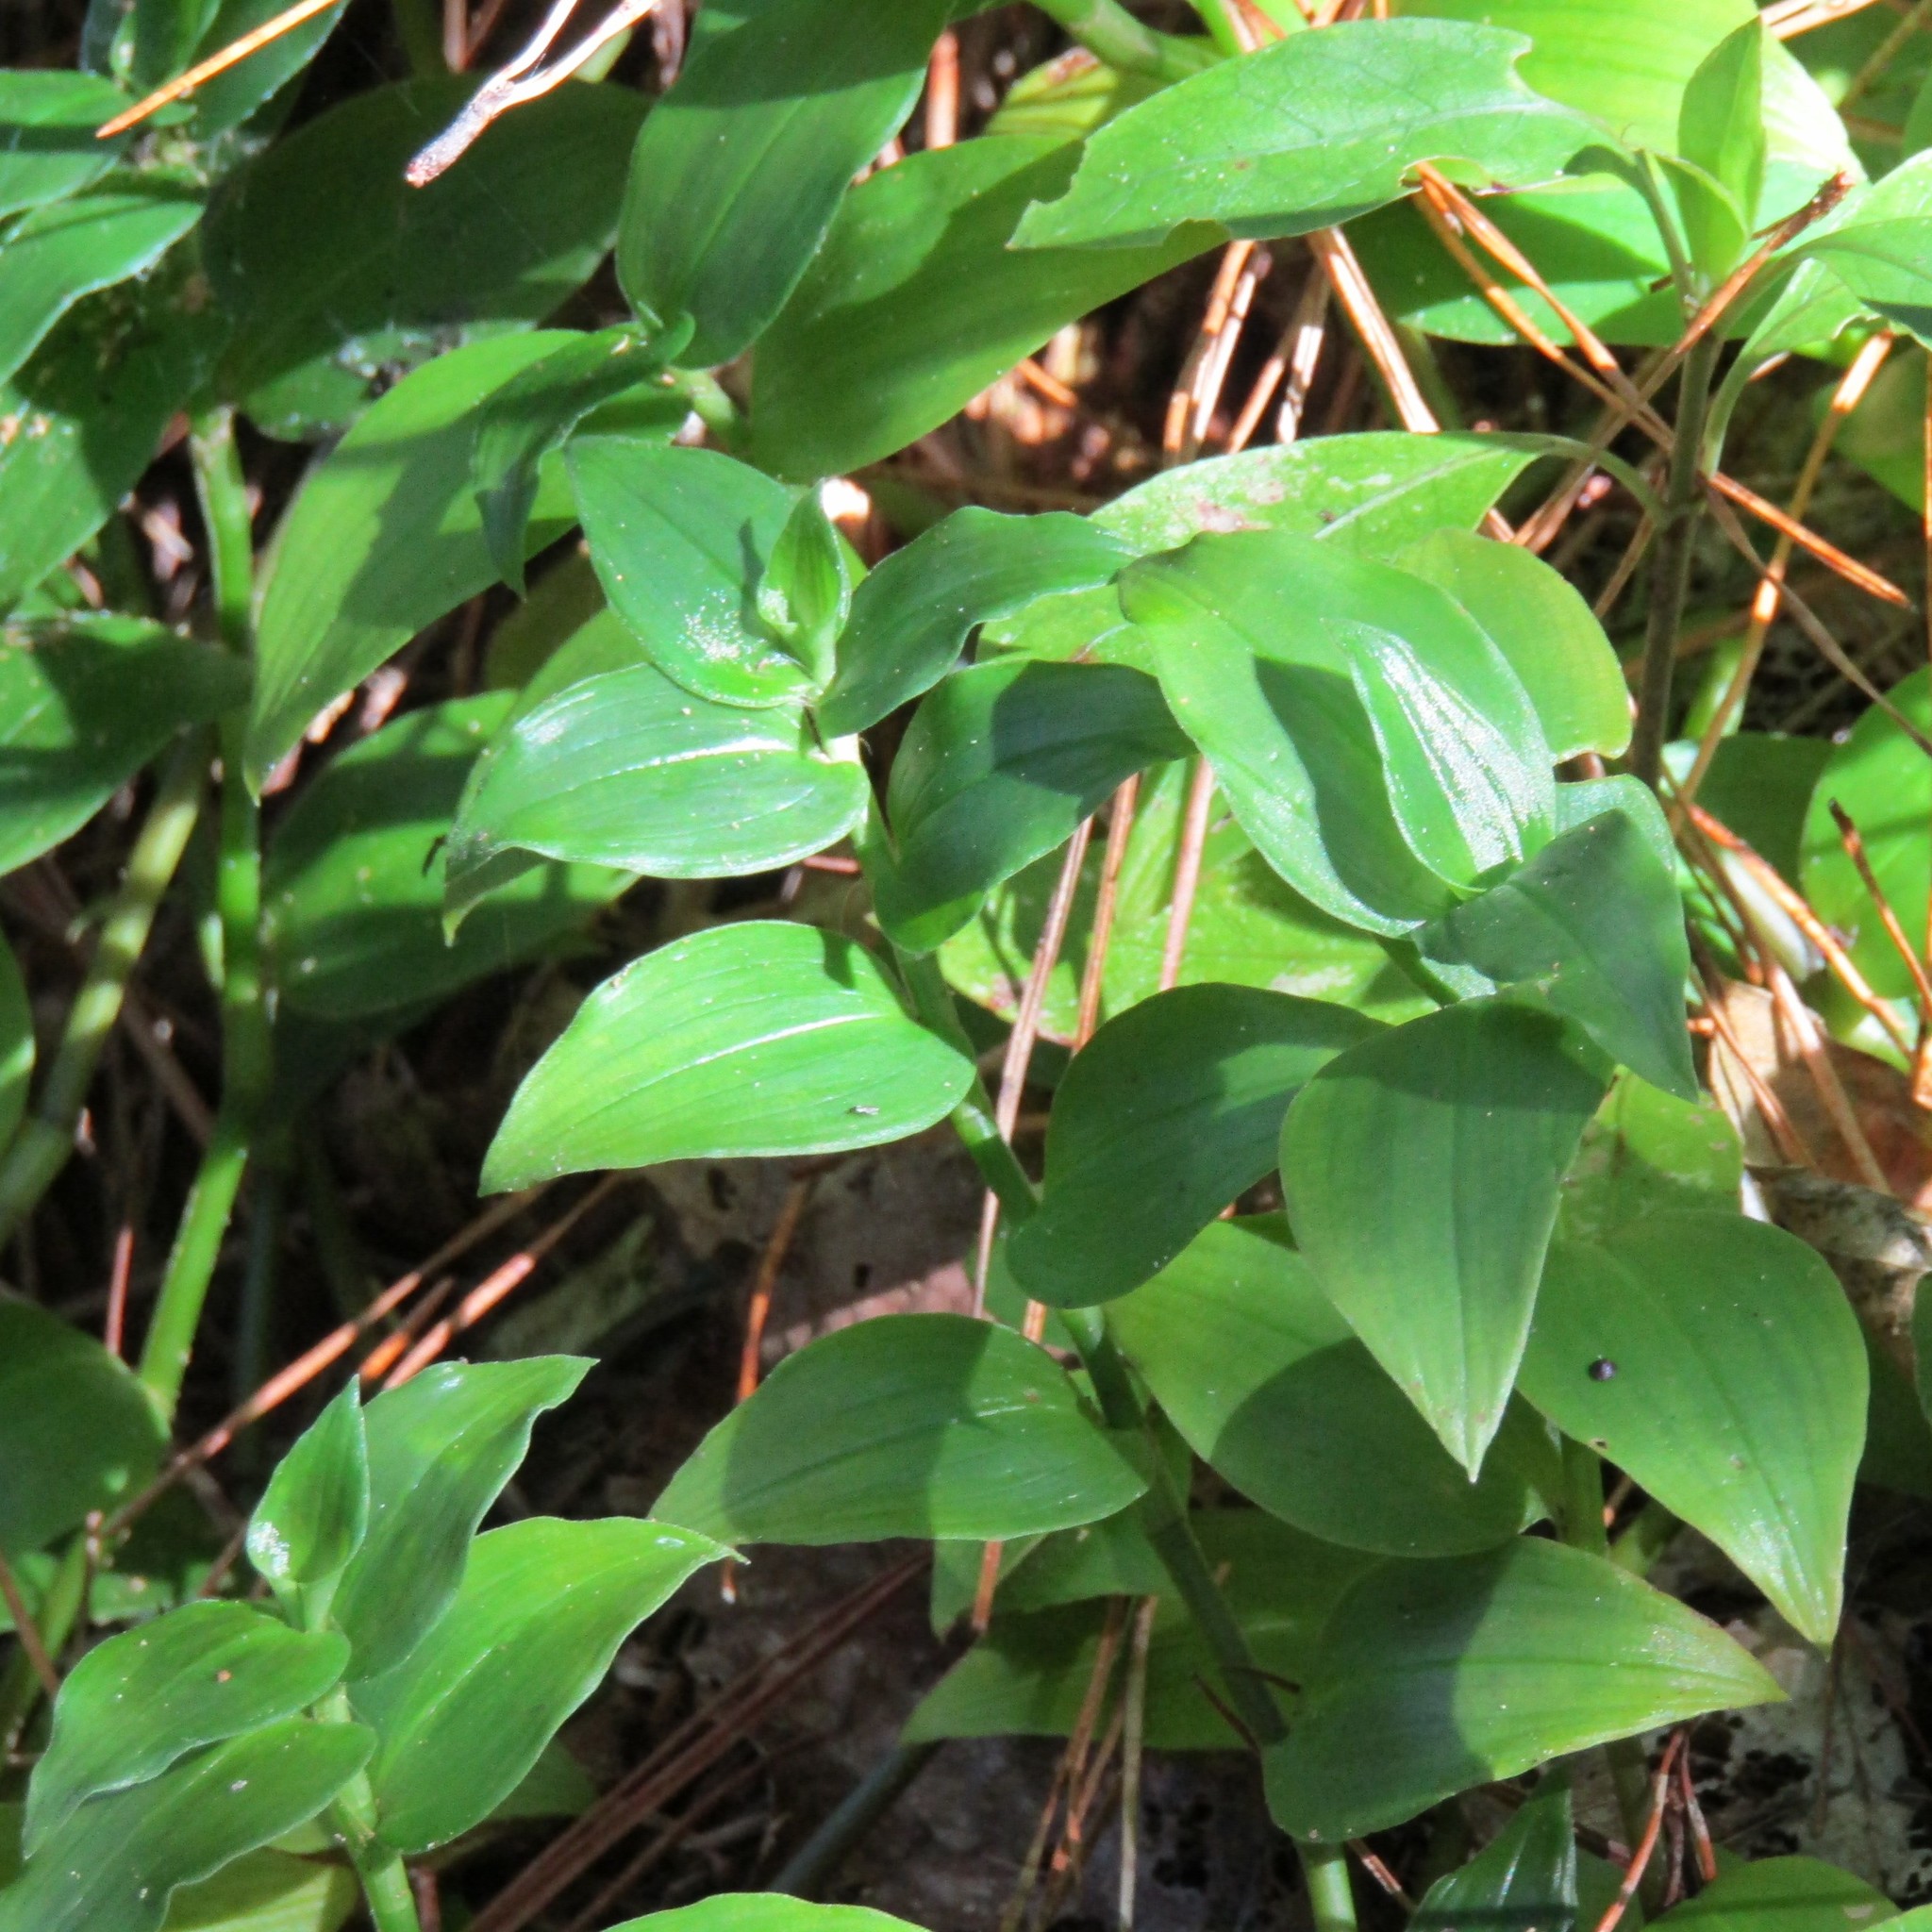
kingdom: Plantae
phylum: Tracheophyta
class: Liliopsida
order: Commelinales
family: Commelinaceae
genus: Tradescantia
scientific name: Tradescantia fluminensis
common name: Wandering-jew
